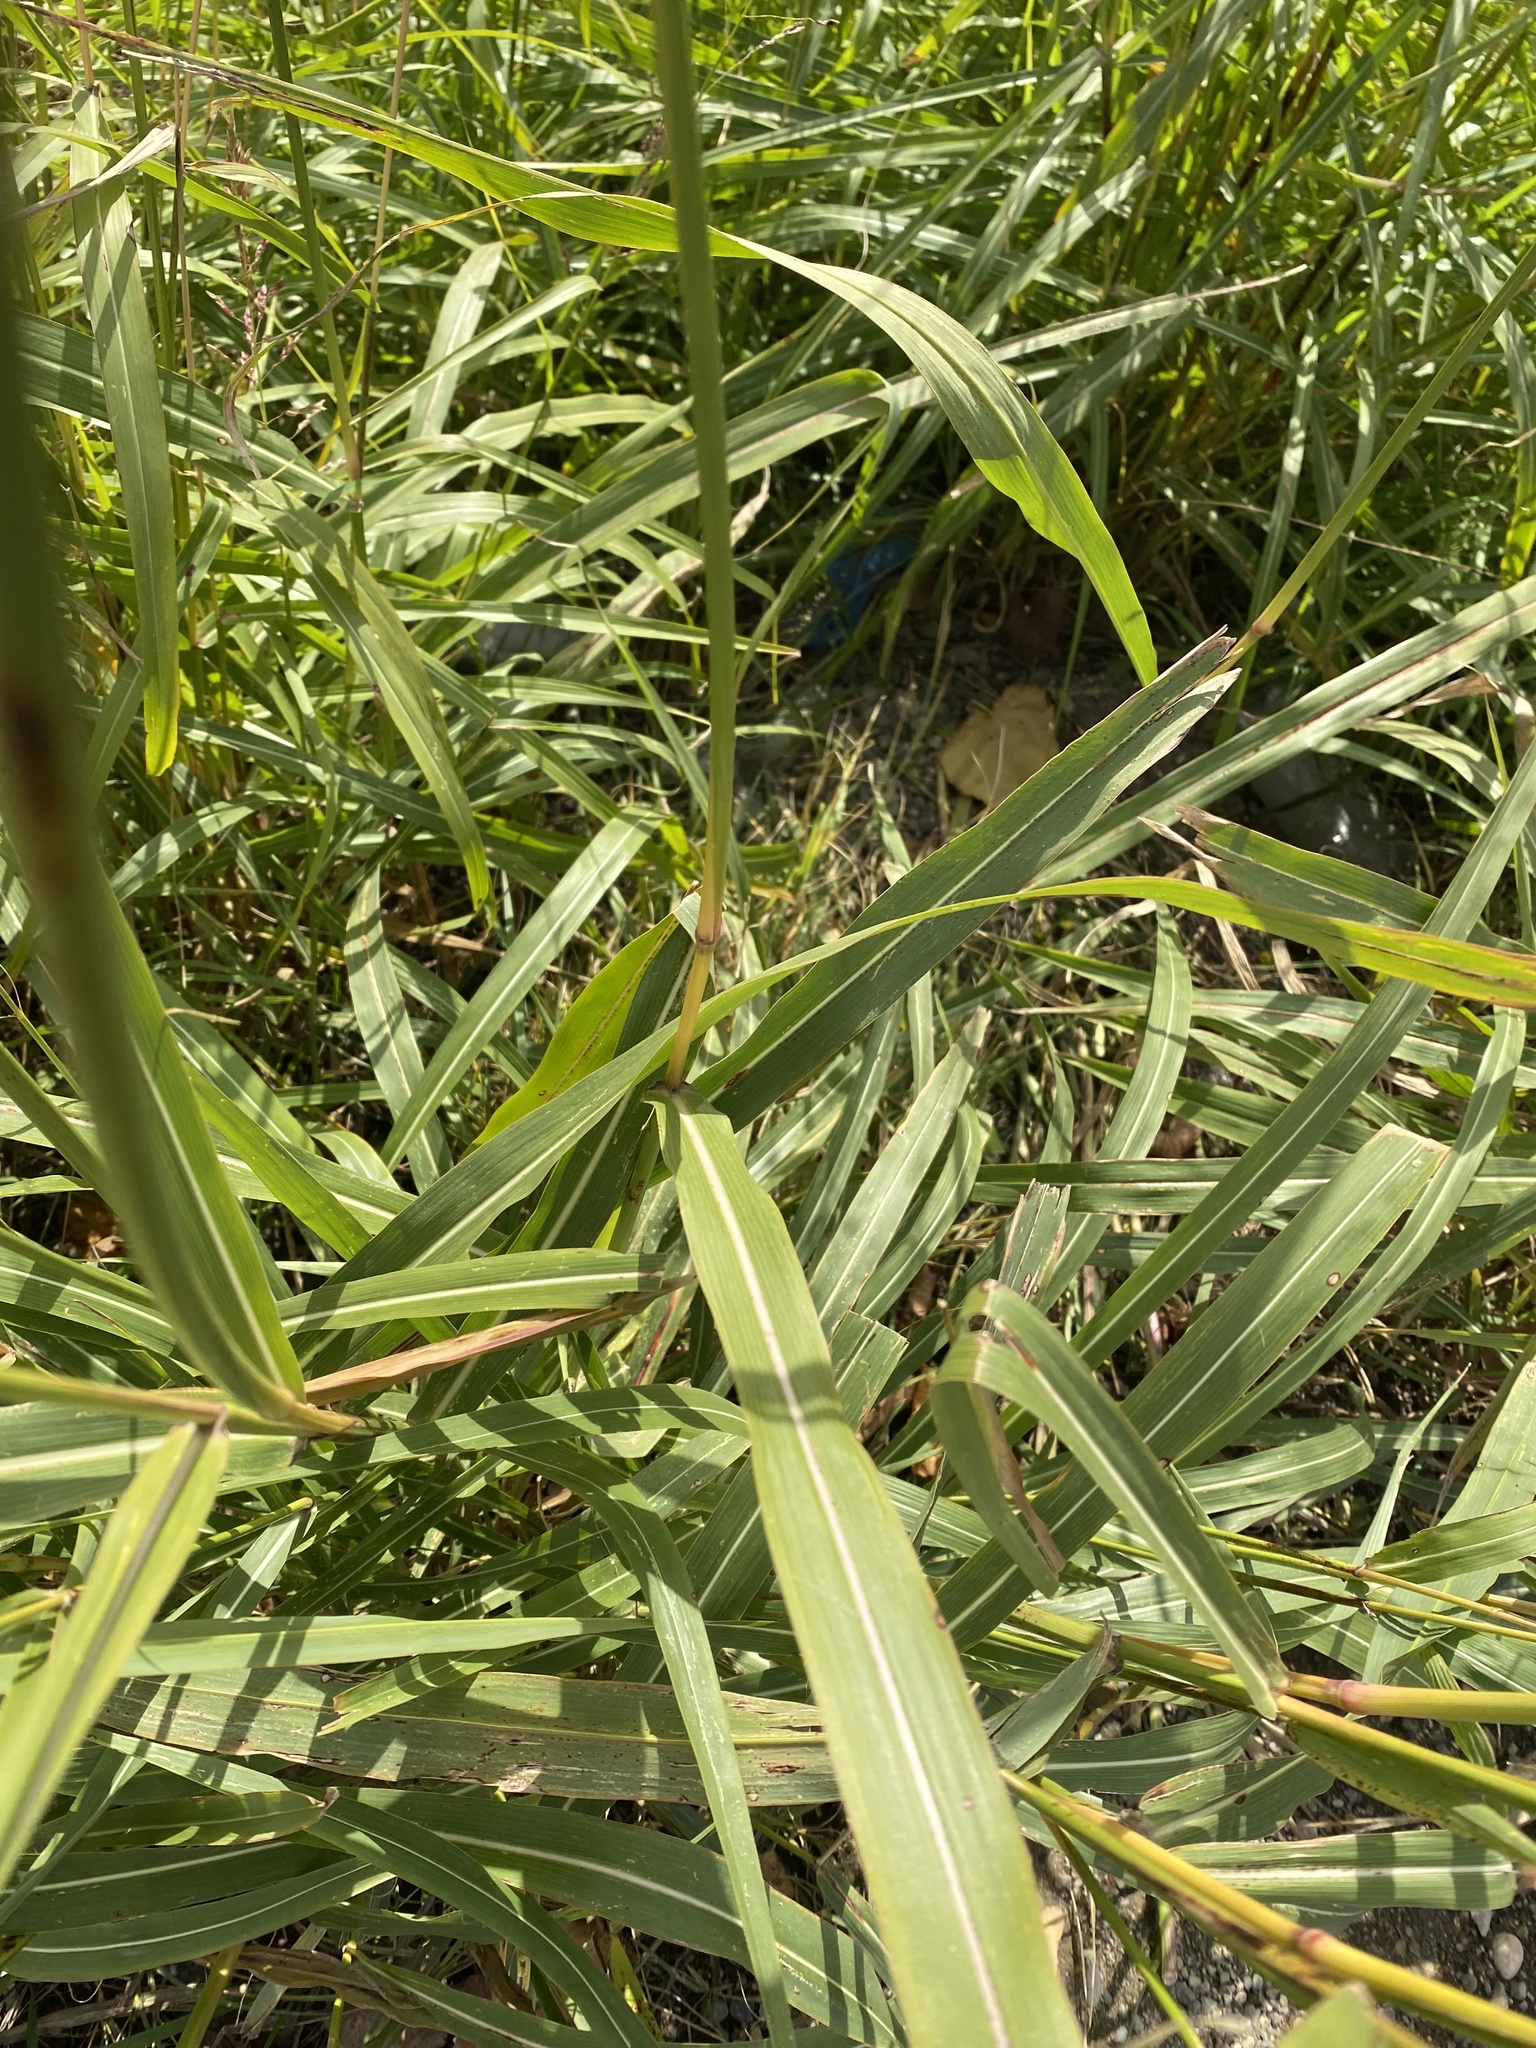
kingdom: Plantae
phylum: Tracheophyta
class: Liliopsida
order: Poales
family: Poaceae
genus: Sorghum
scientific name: Sorghum halepense
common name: Johnson-grass
